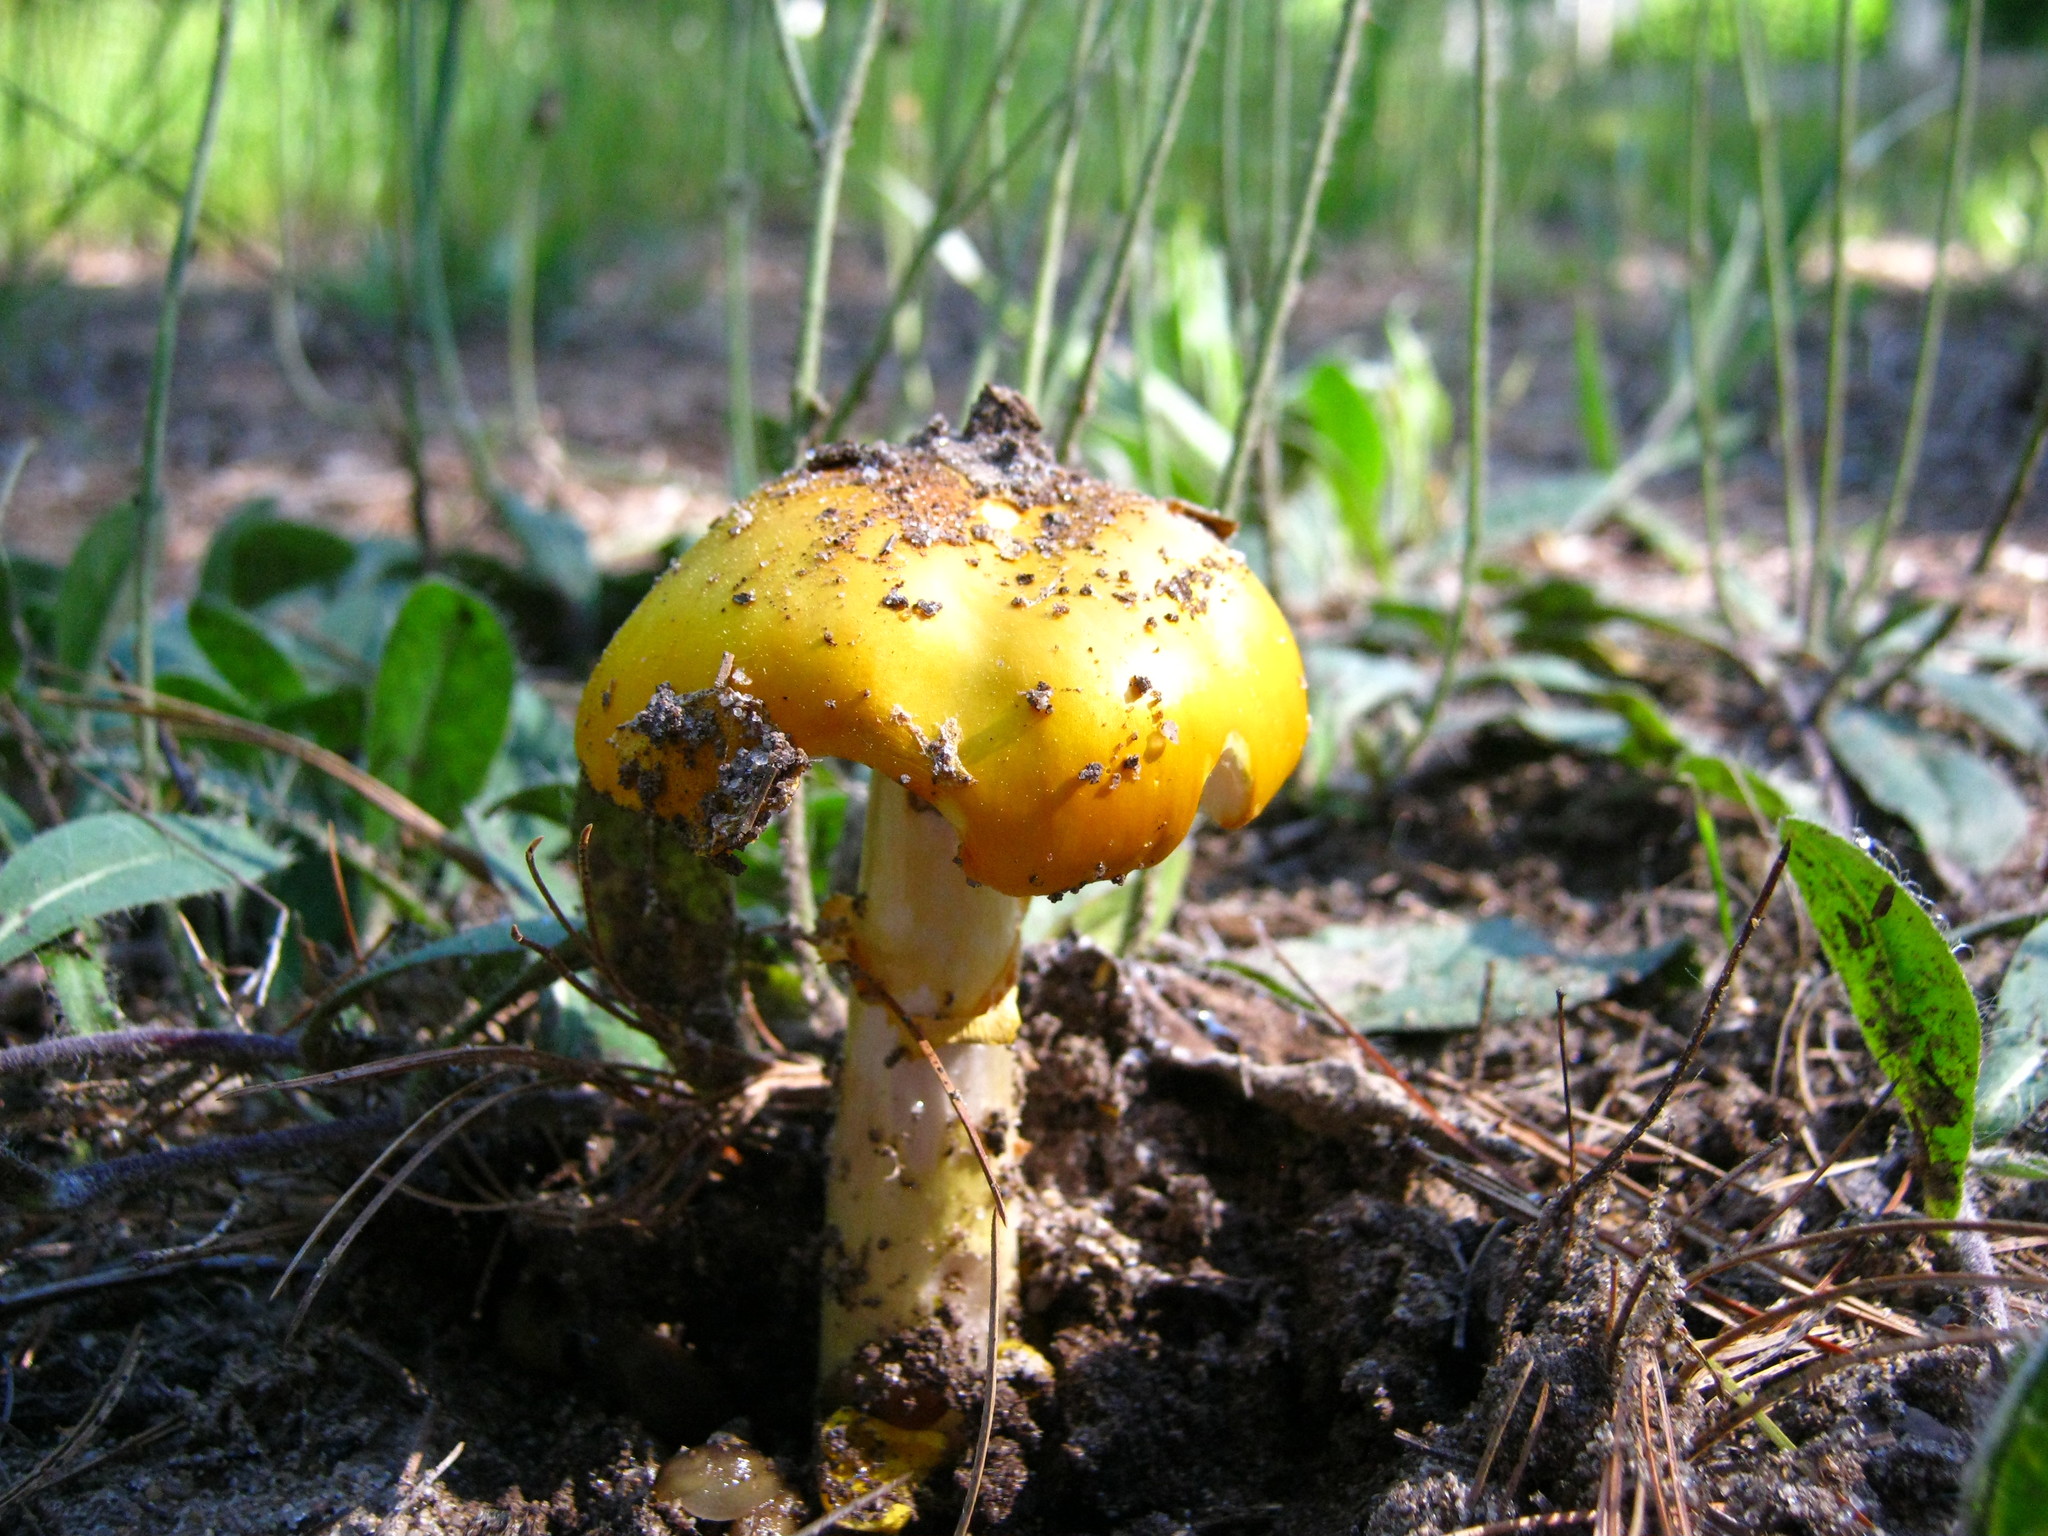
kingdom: Fungi
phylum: Basidiomycota
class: Agaricomycetes
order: Agaricales
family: Amanitaceae
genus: Amanita
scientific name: Amanita flavoconia
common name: Yellow patches
